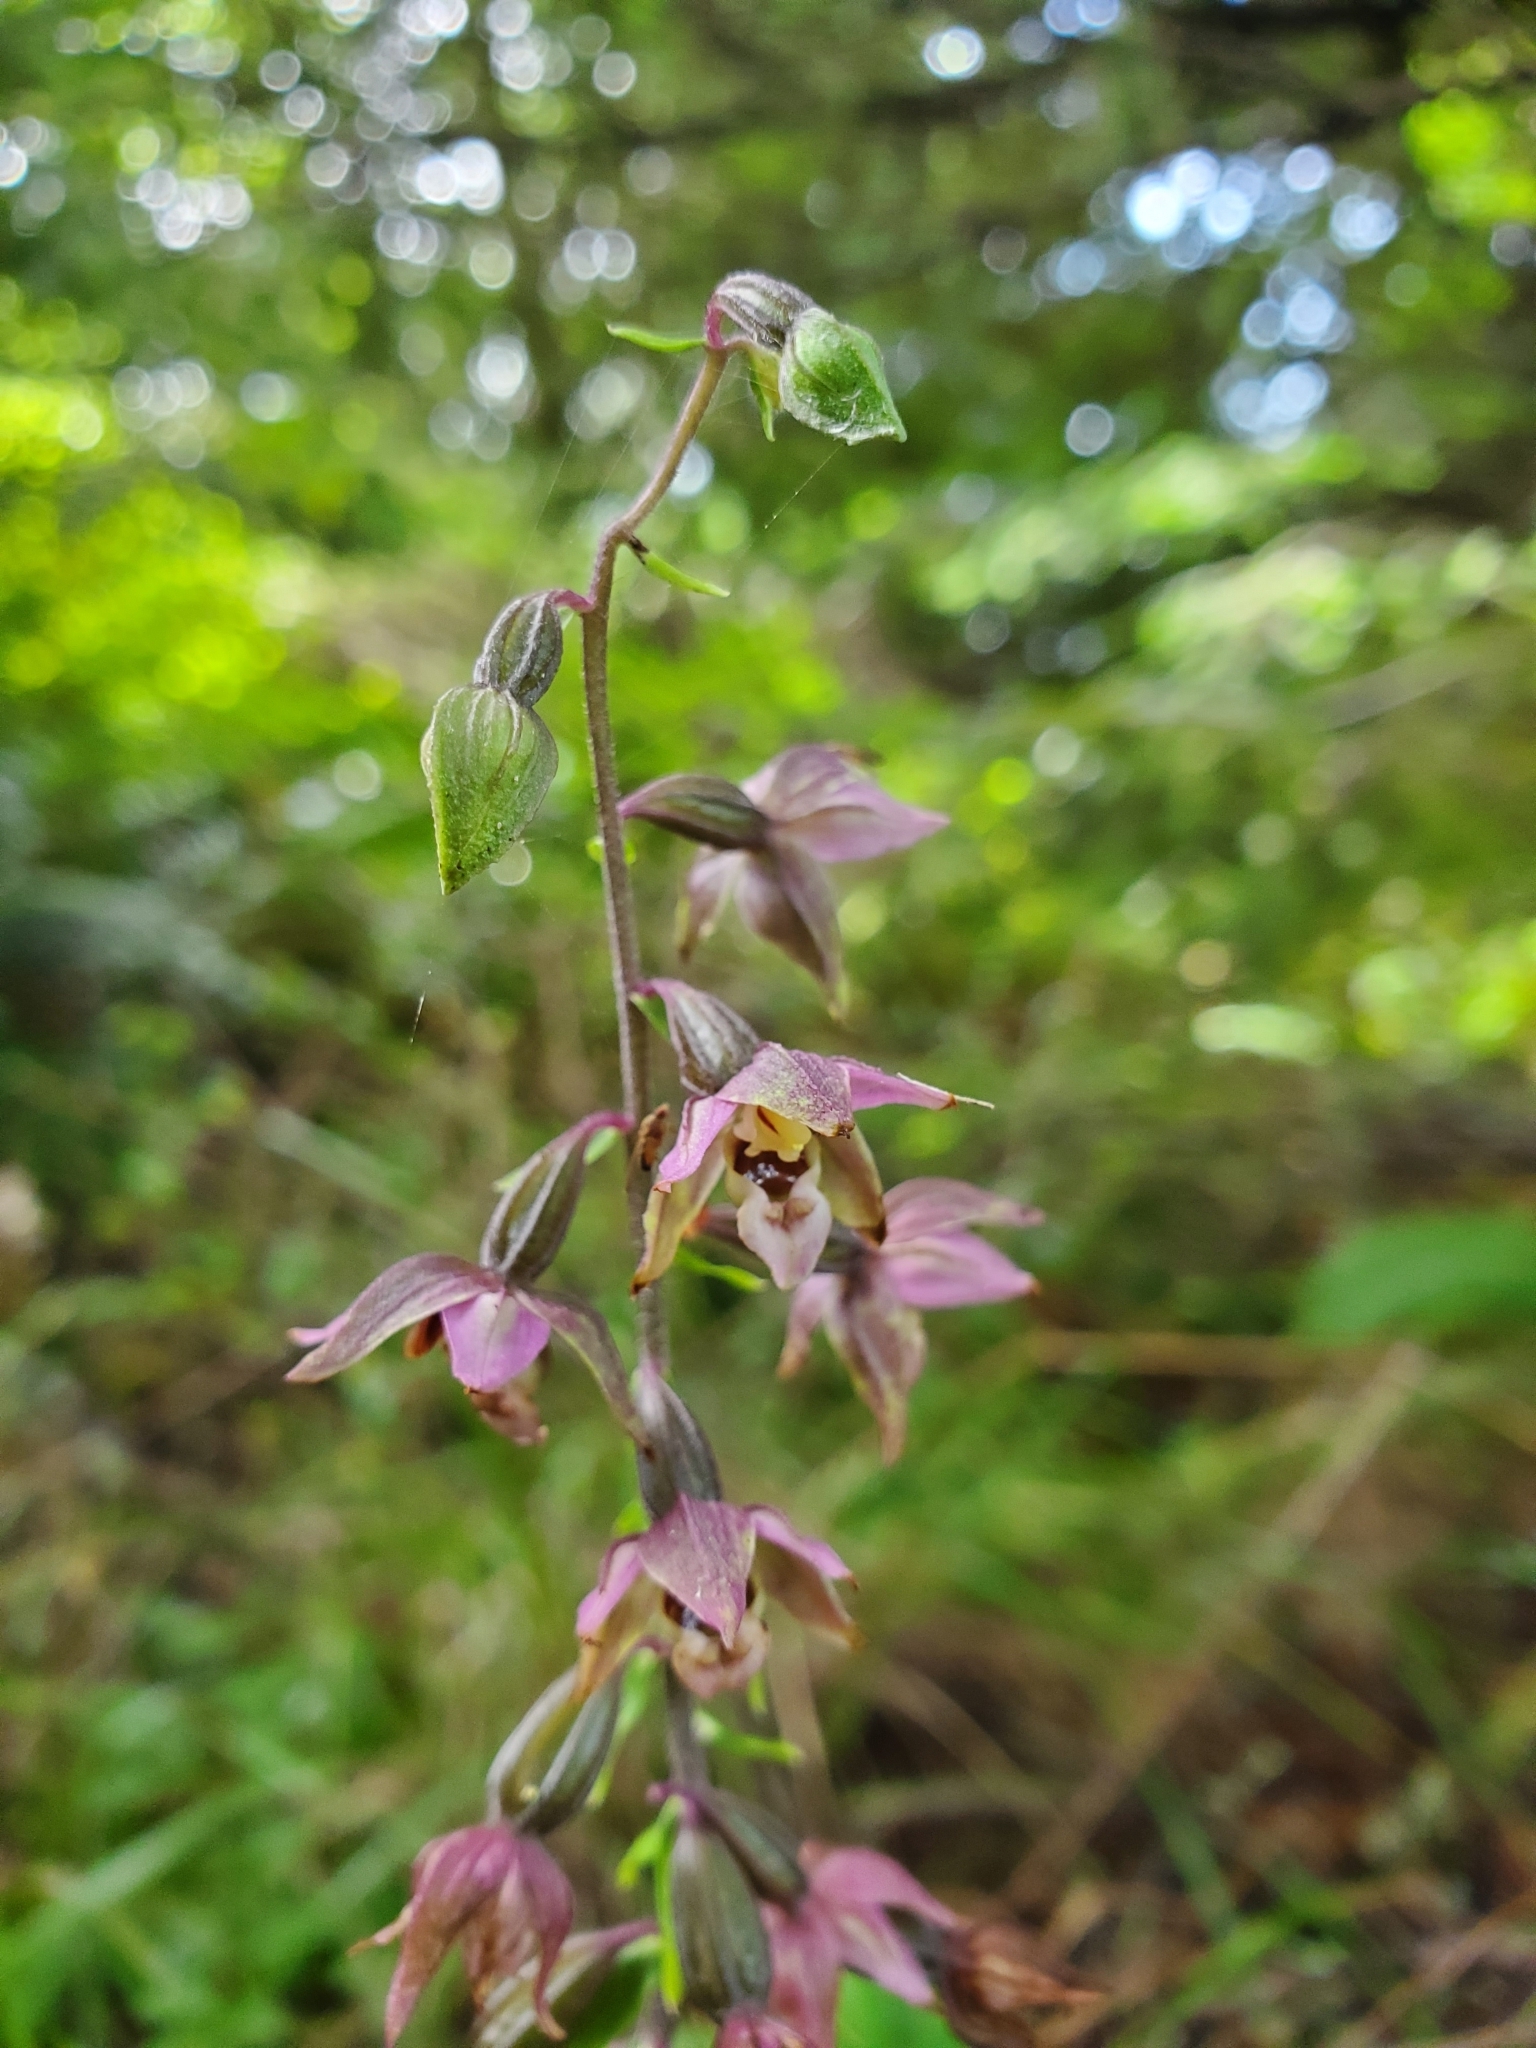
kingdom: Plantae
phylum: Tracheophyta
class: Liliopsida
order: Asparagales
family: Orchidaceae
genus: Epipactis
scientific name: Epipactis helleborine
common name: Broad-leaved helleborine
